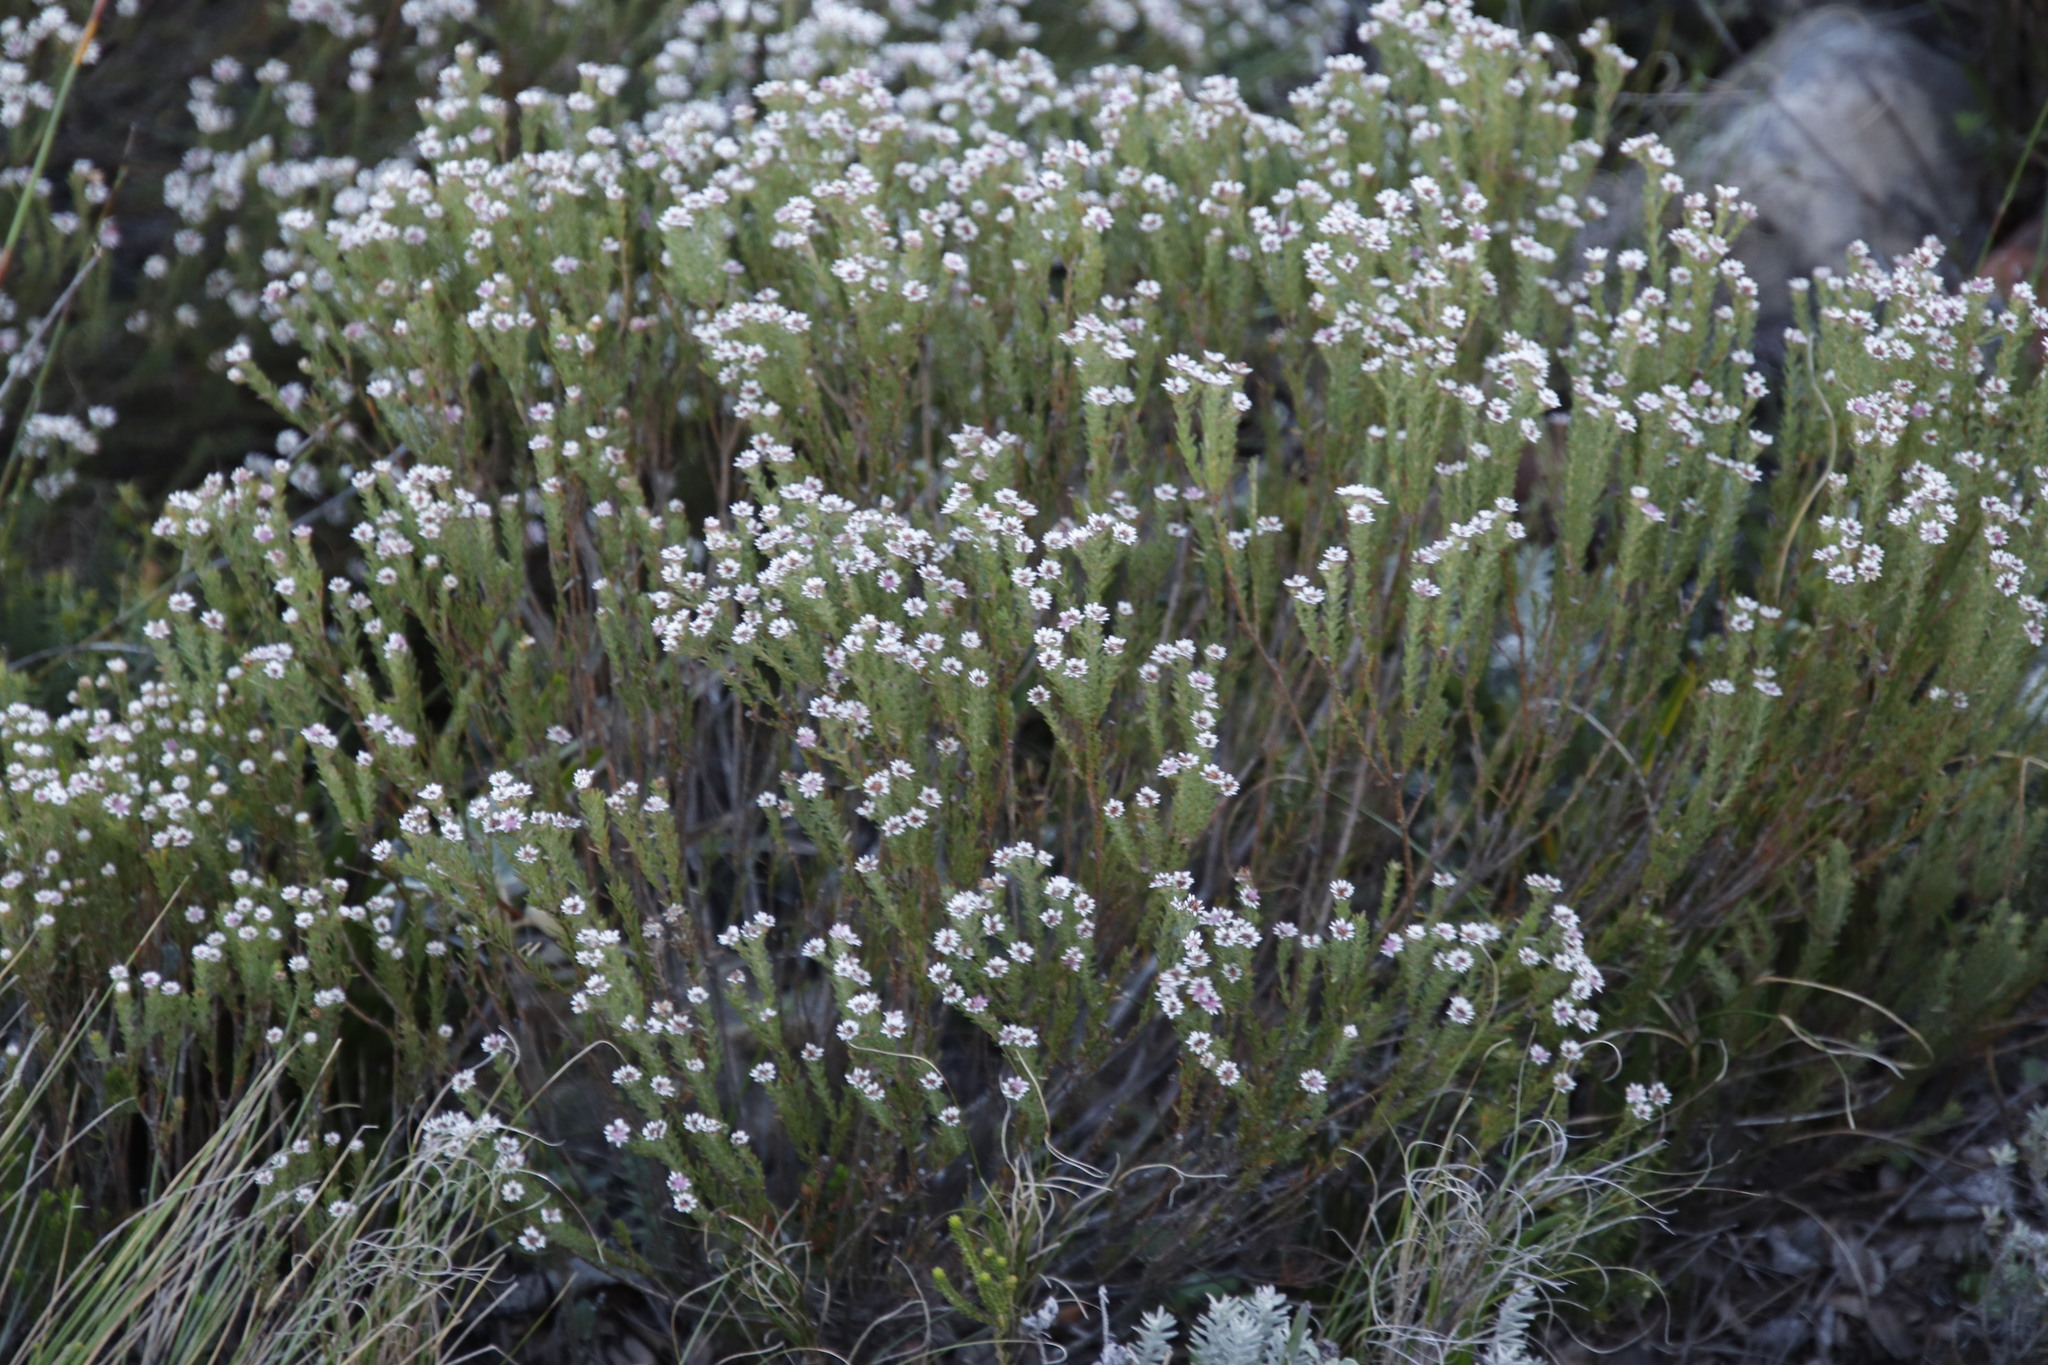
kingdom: Plantae
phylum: Tracheophyta
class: Magnoliopsida
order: Bruniales
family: Bruniaceae
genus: Staavia
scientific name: Staavia radiata
